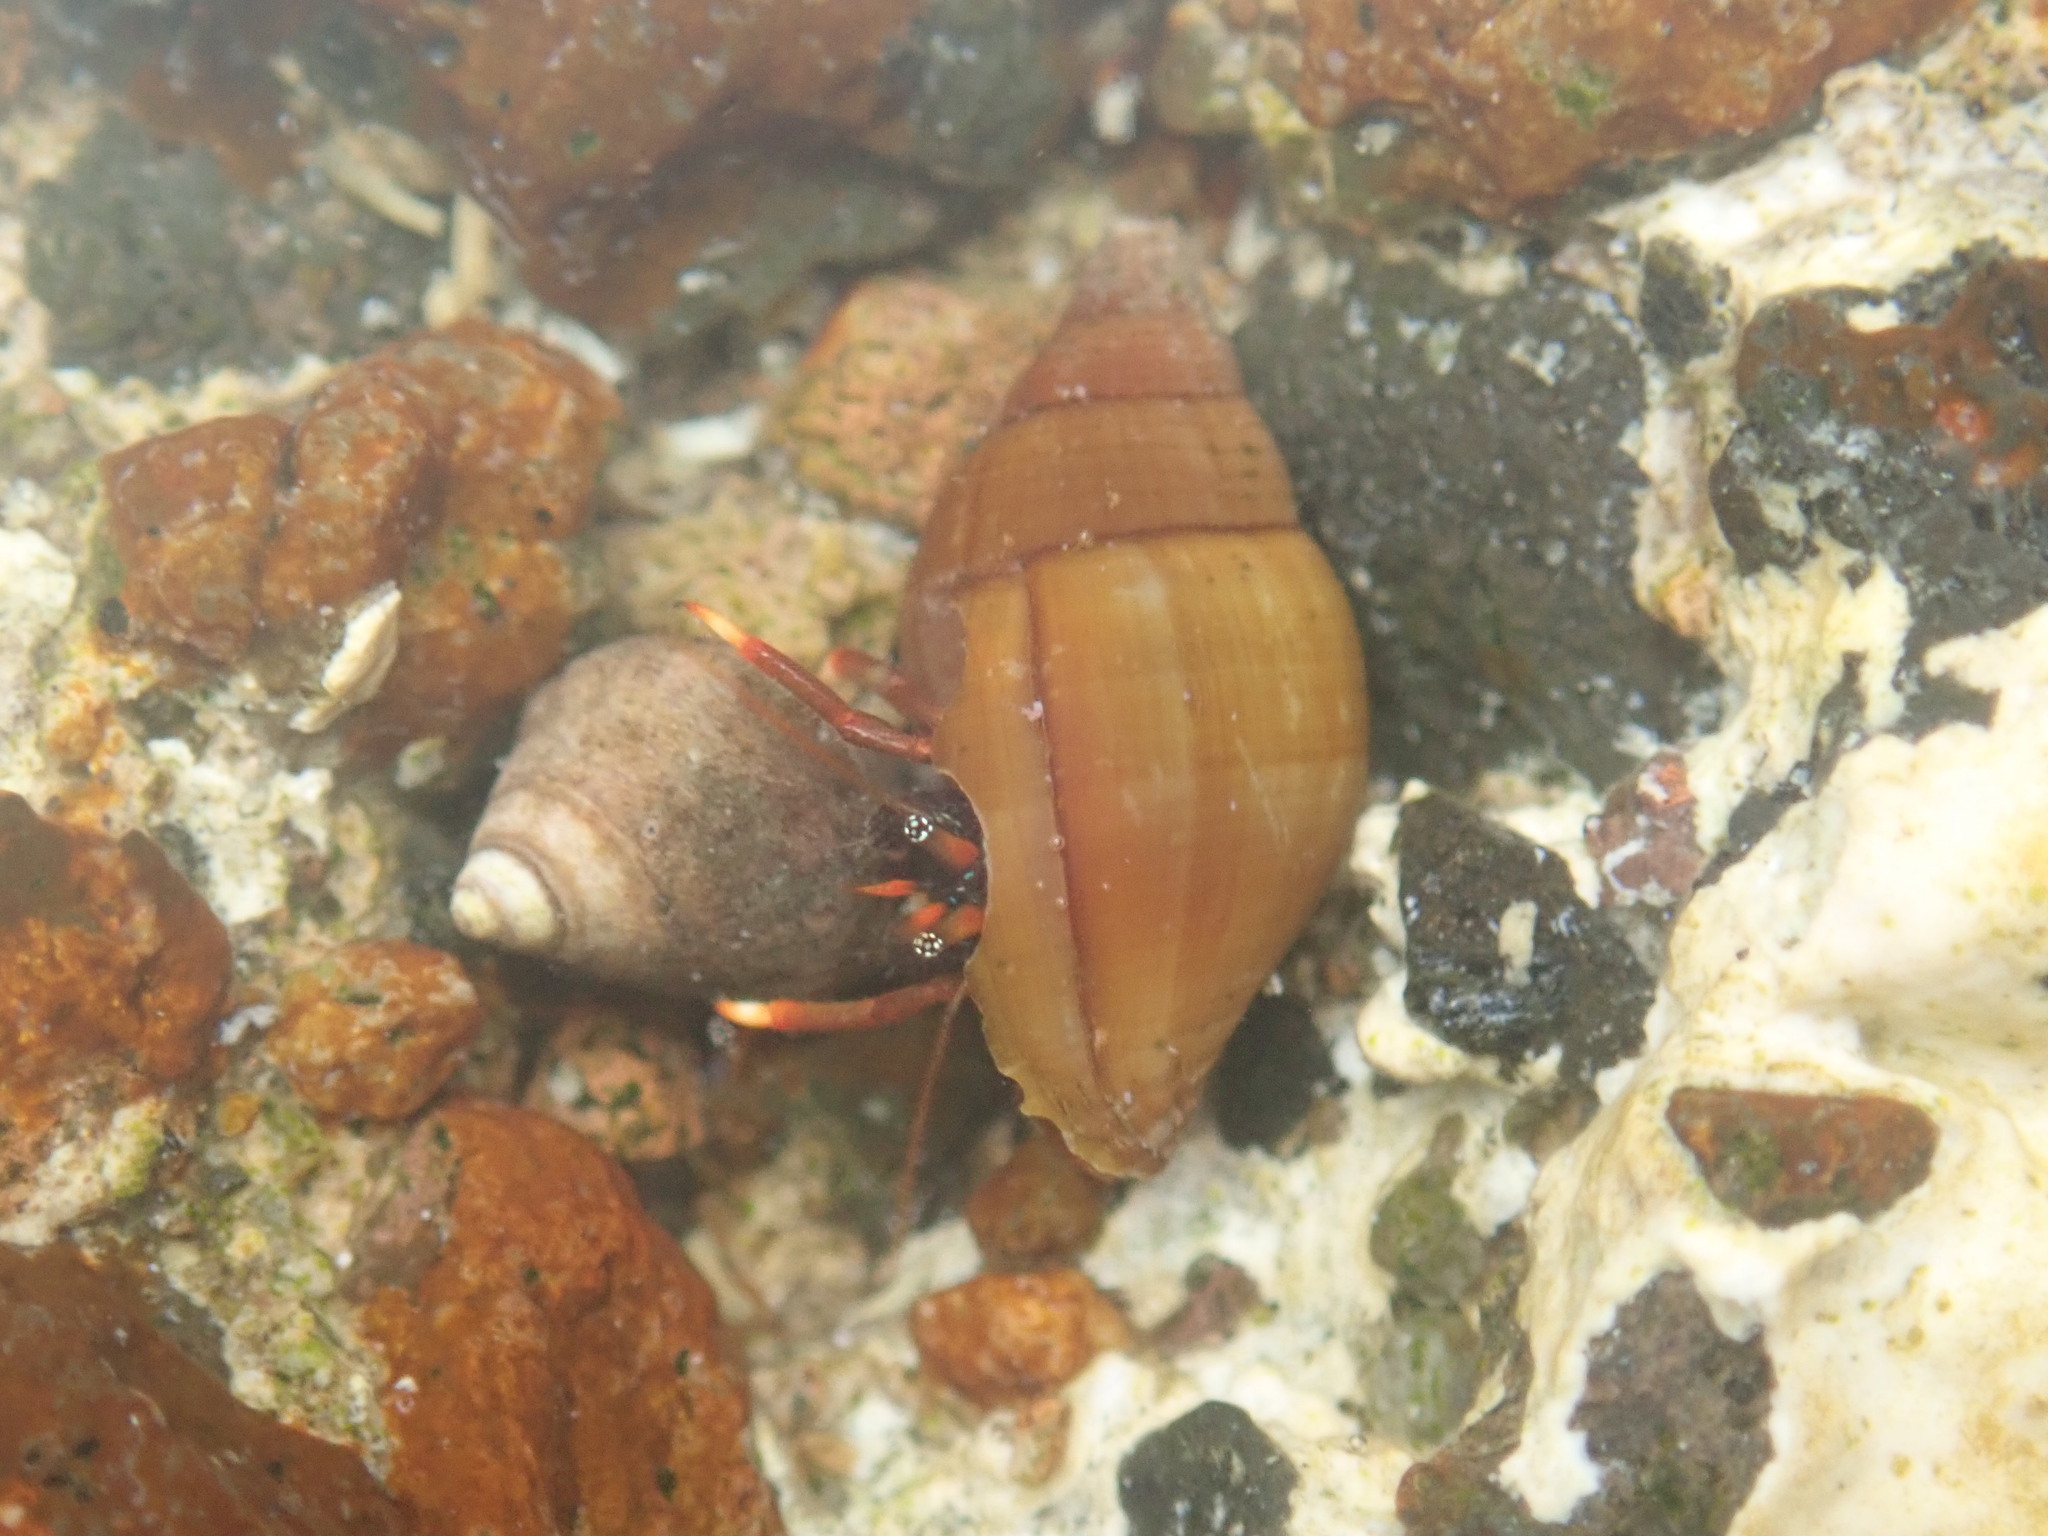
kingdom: Animalia
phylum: Arthropoda
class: Malacostraca
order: Decapoda
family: Diogenidae
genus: Clibanarius
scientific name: Clibanarius aequabilis
